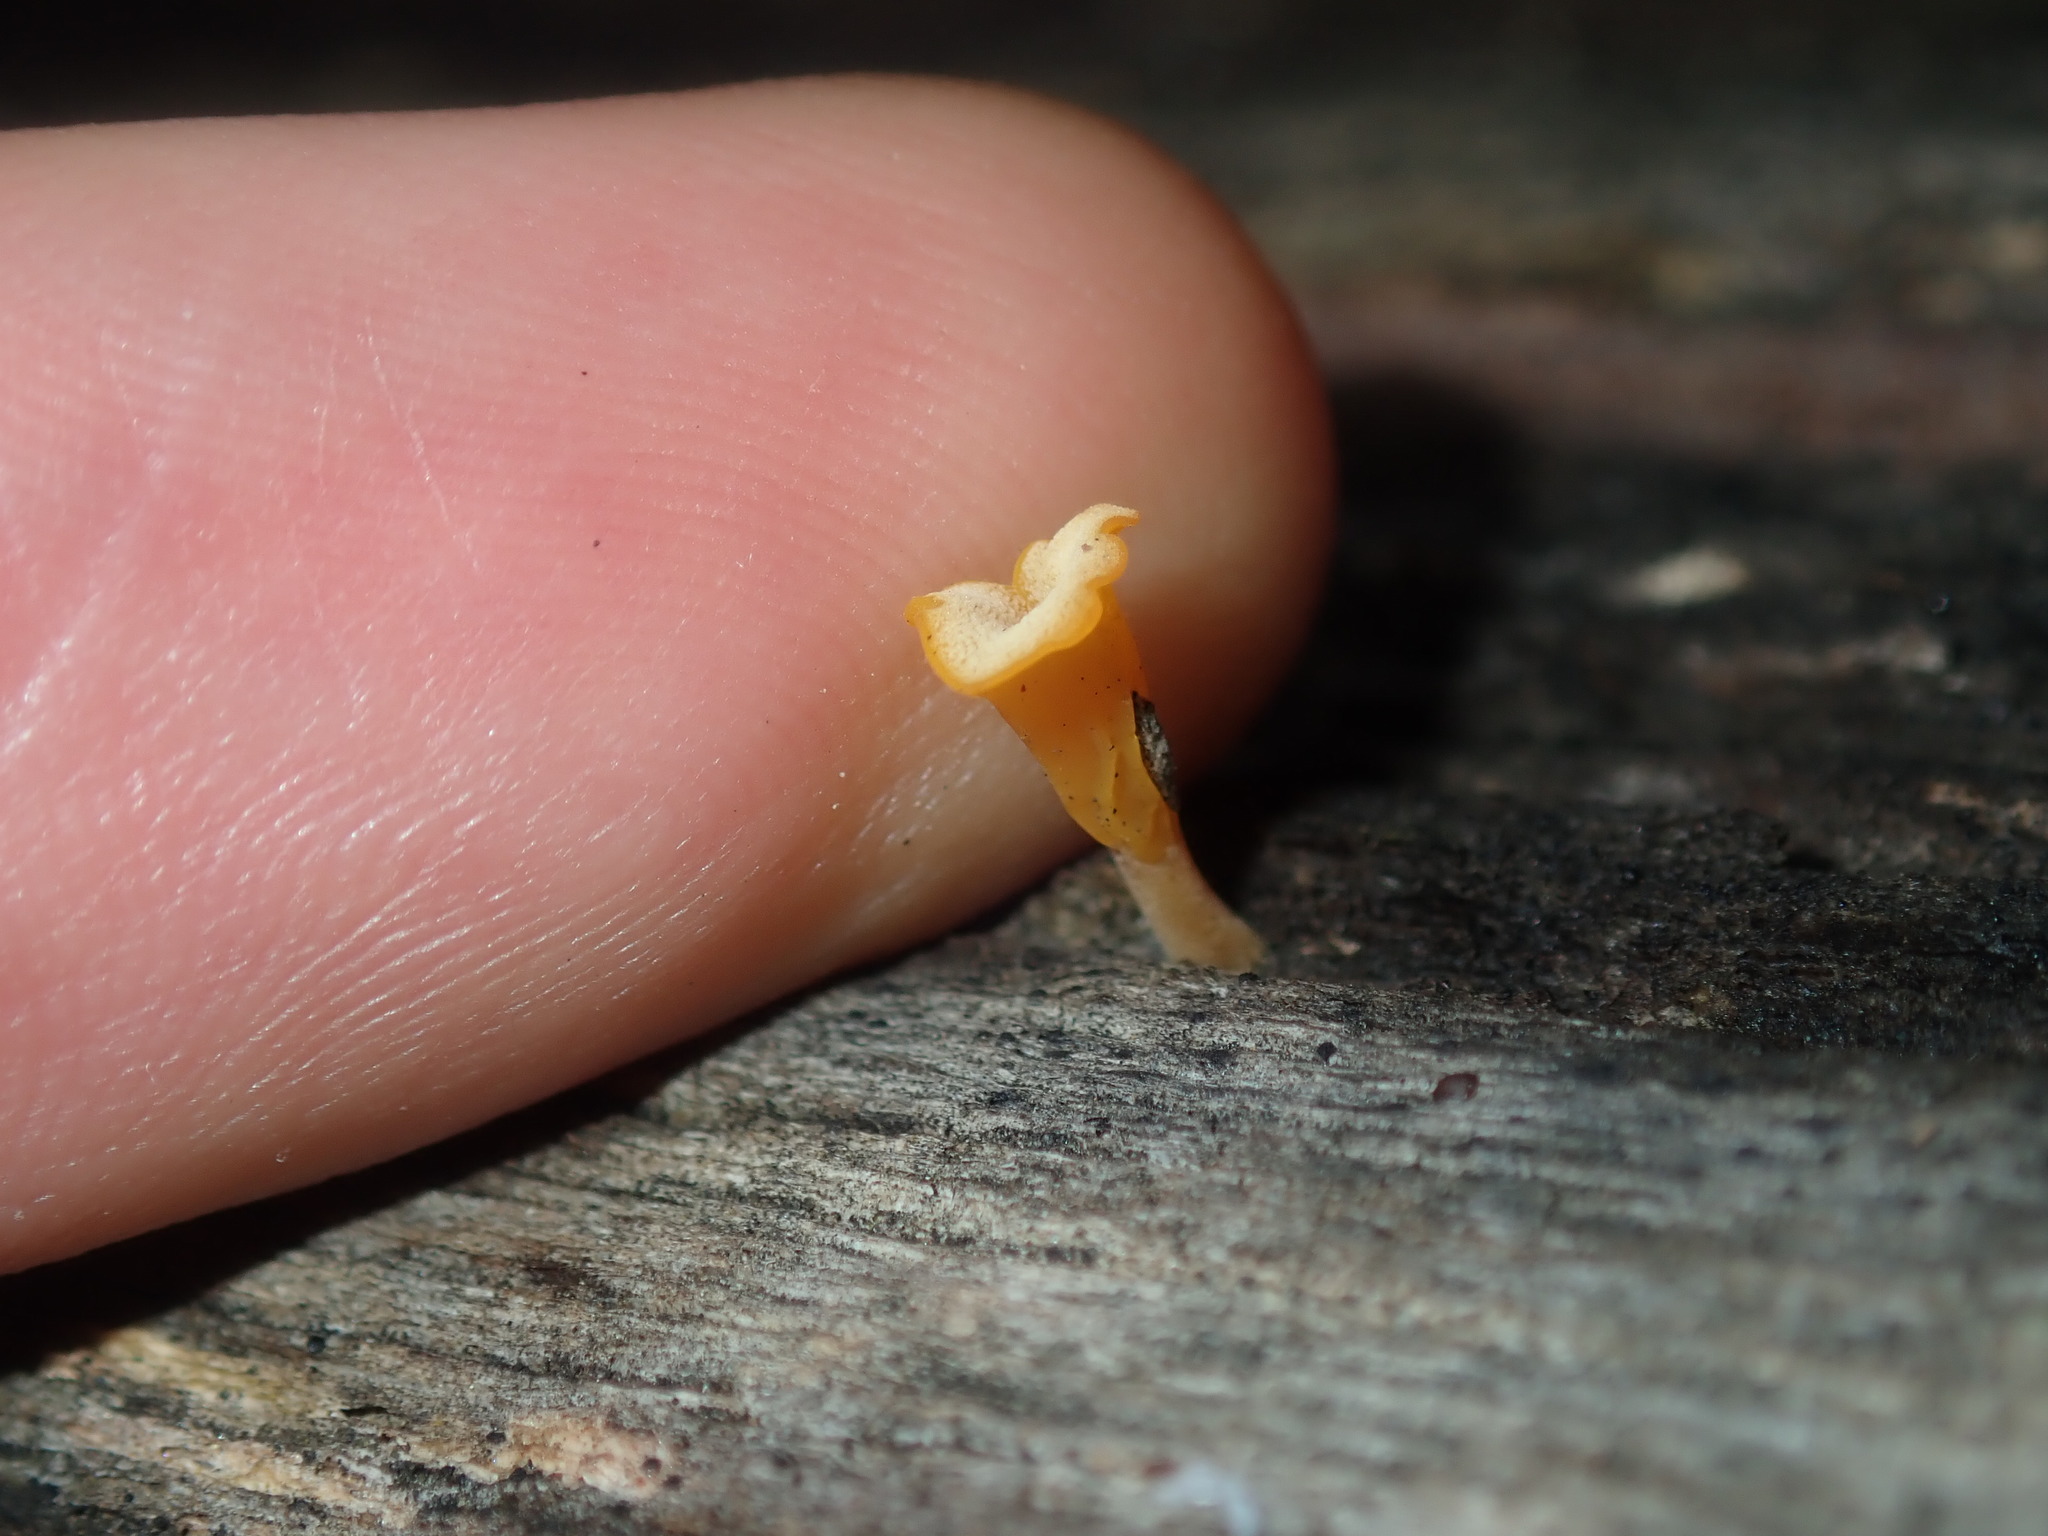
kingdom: Fungi
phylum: Basidiomycota
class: Dacrymycetes
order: Dacrymycetales
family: Dacrymycetaceae
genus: Dacrymyces
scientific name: Dacrymyces spathularius
